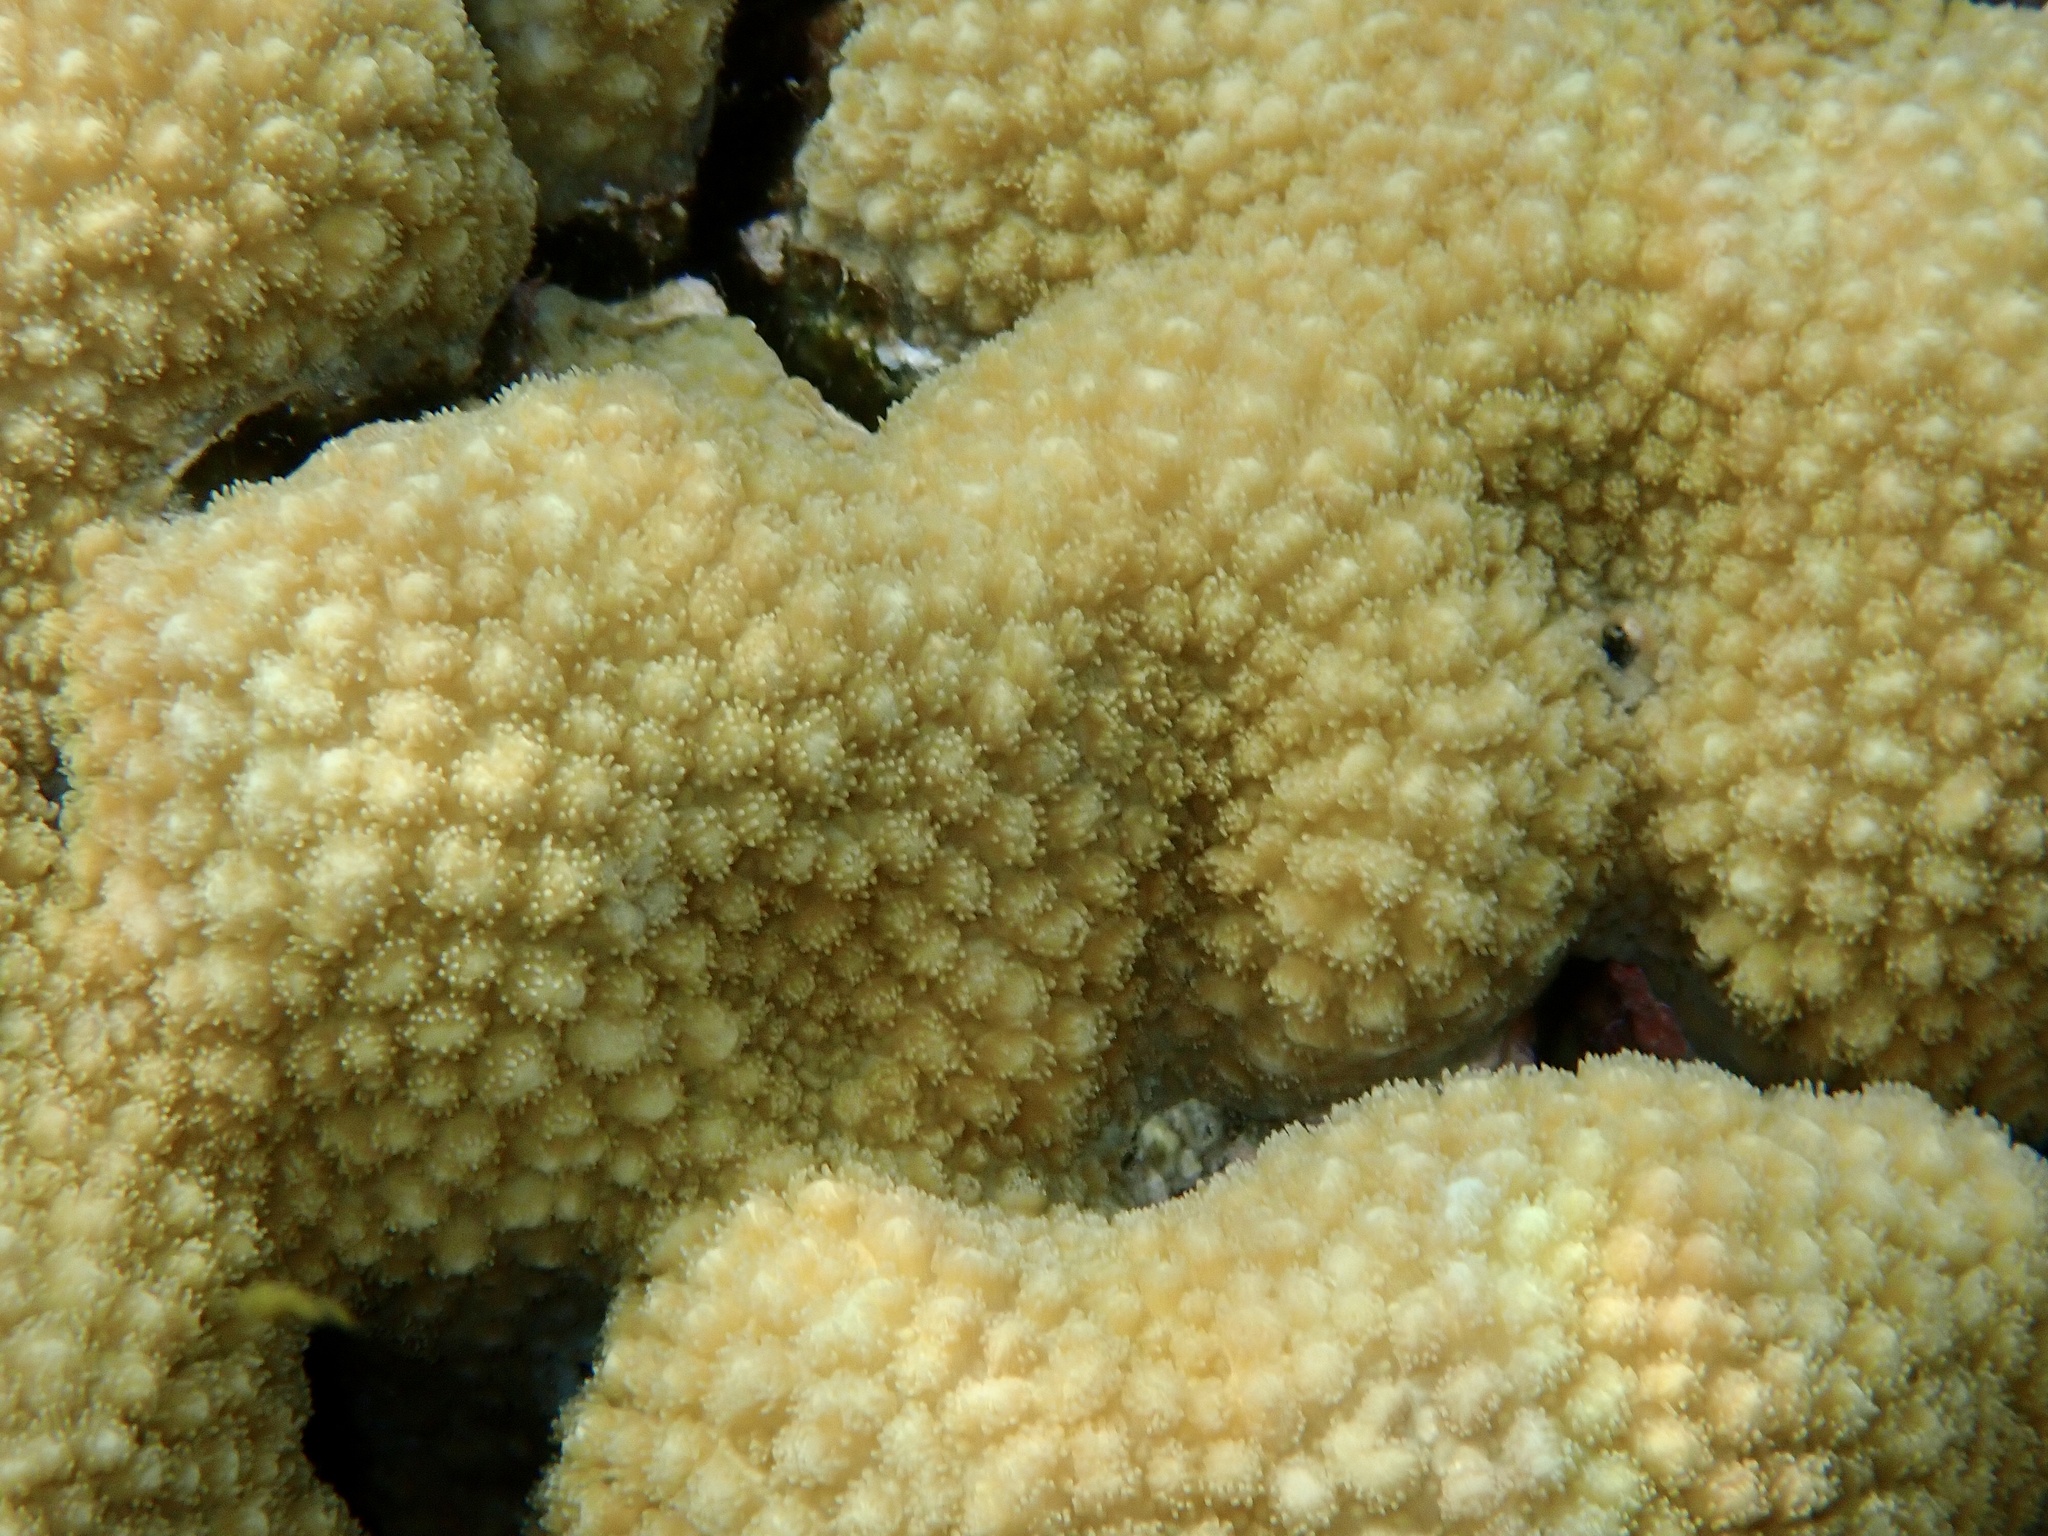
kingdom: Animalia
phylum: Cnidaria
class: Anthozoa
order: Scleractinia
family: Merulinidae
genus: Hydnophora
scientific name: Hydnophora microconos
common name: Spine coral
